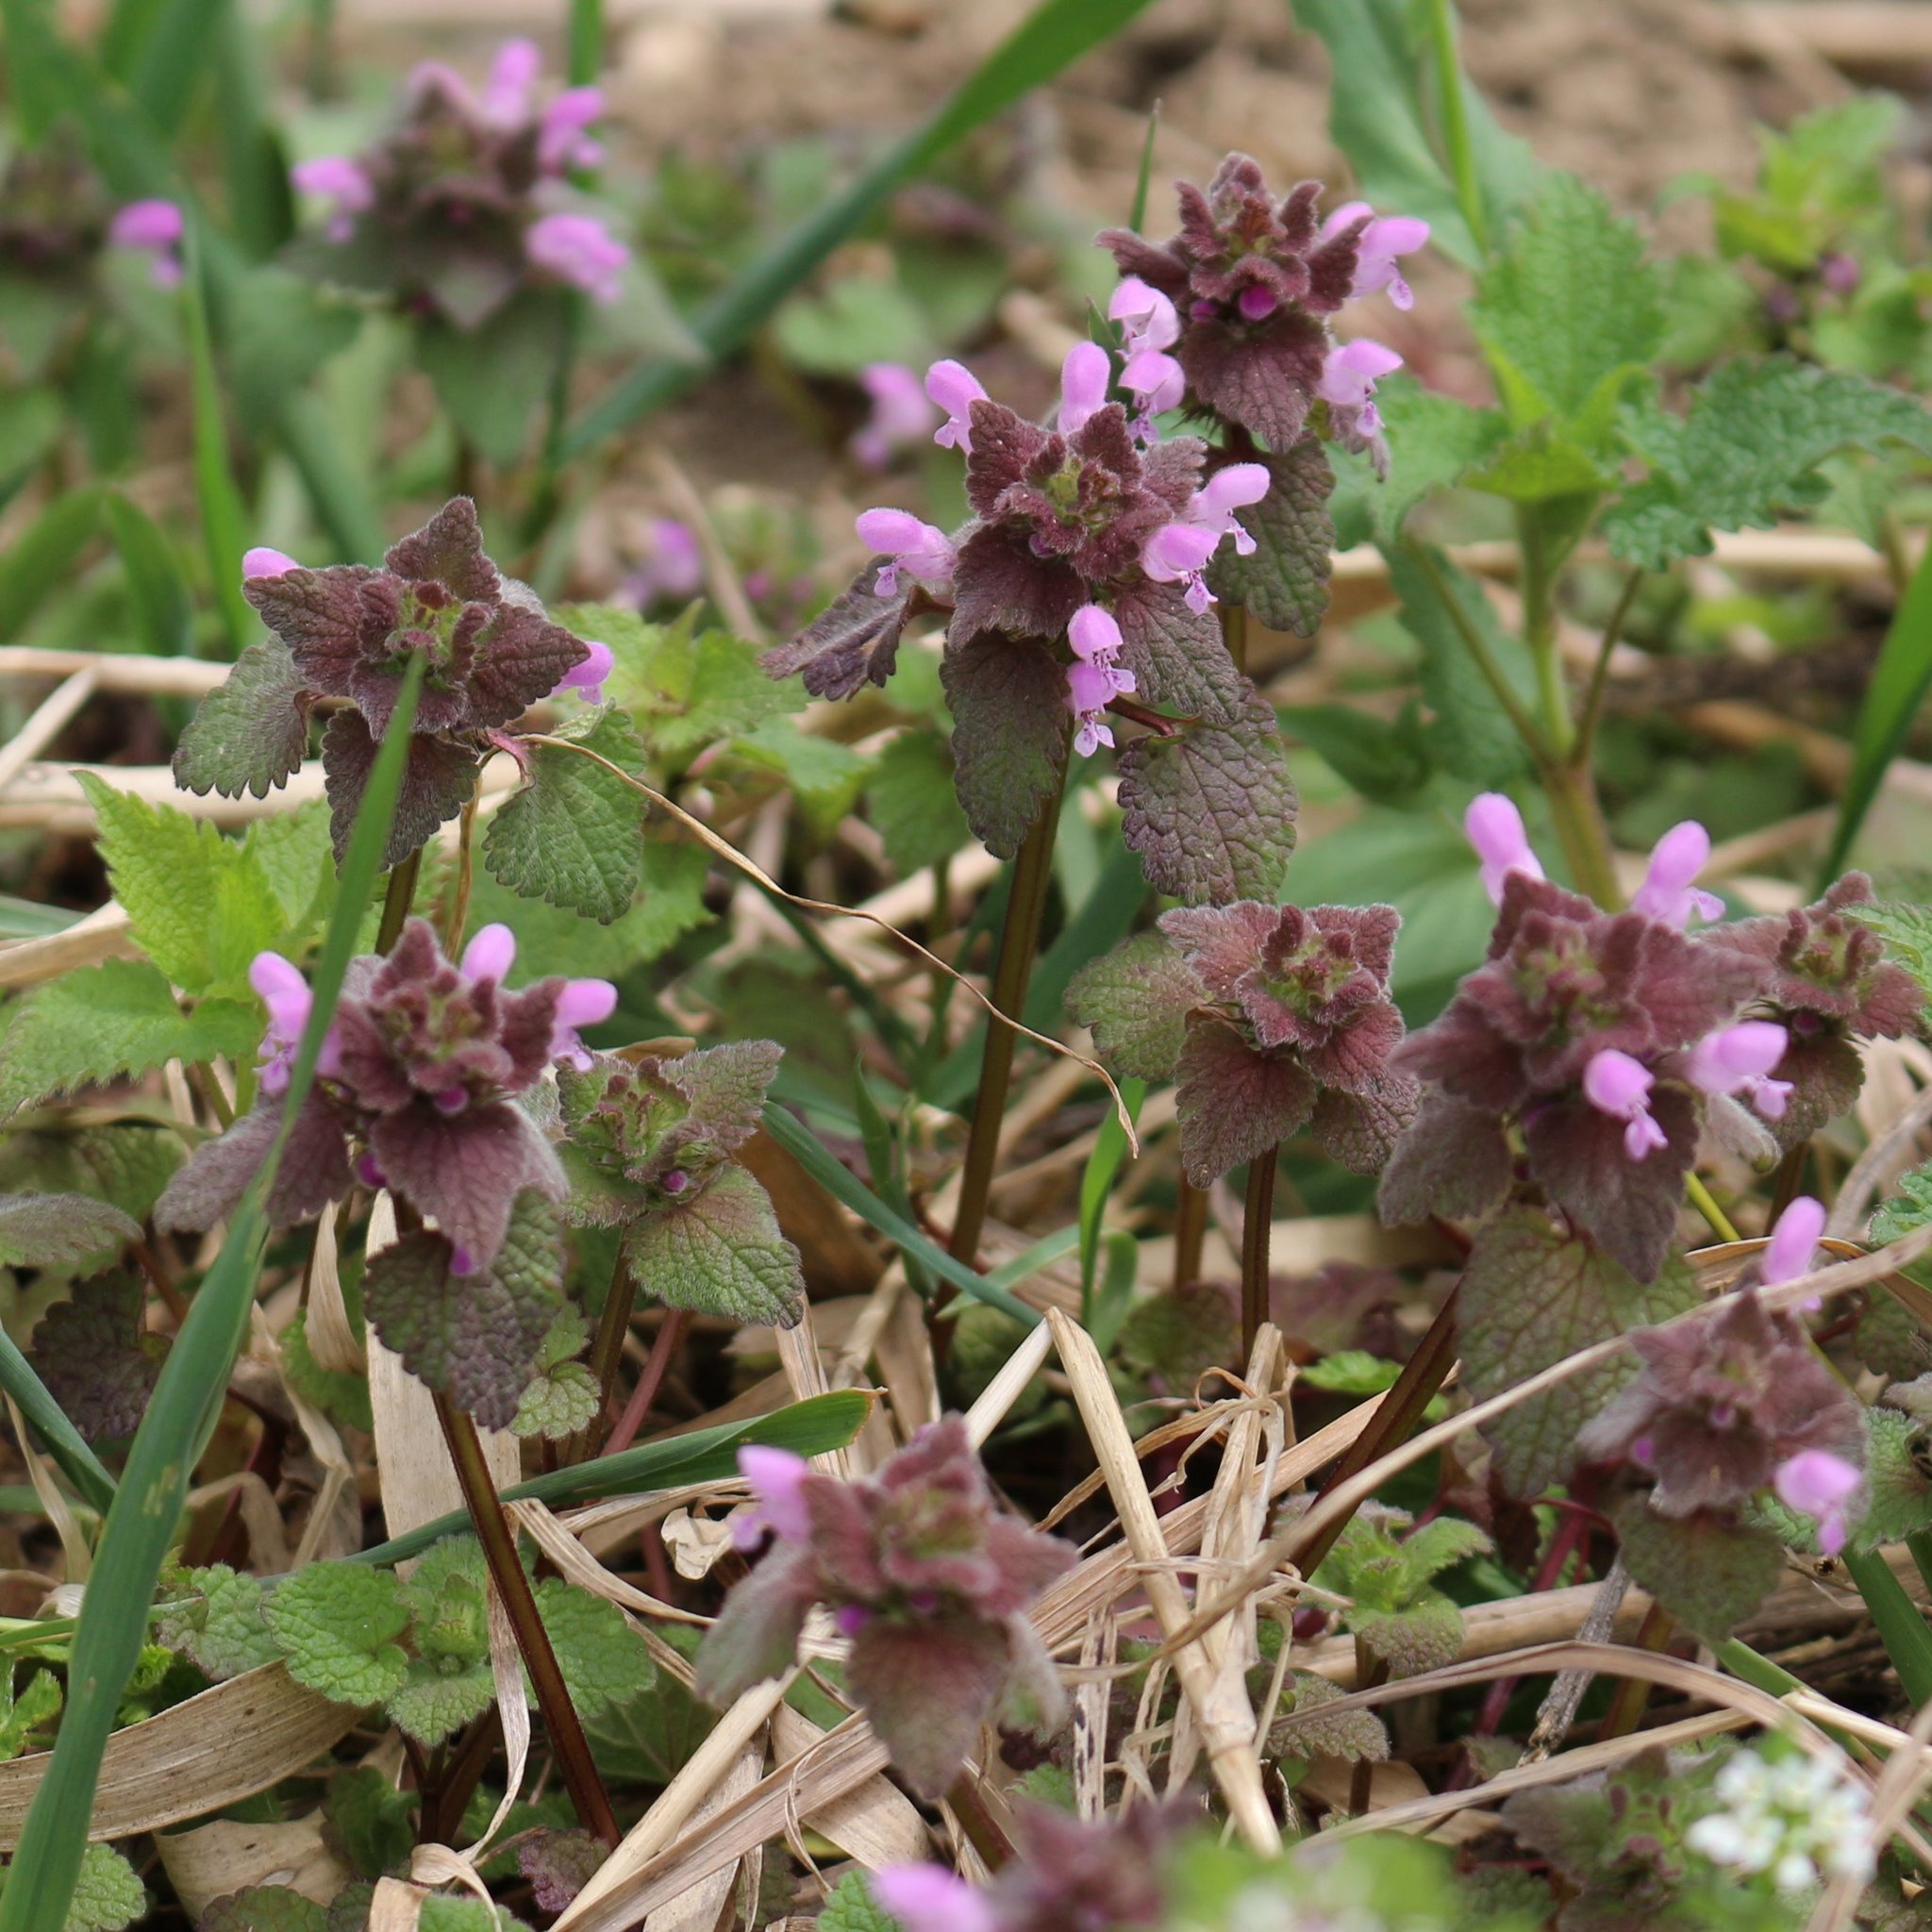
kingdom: Plantae
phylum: Tracheophyta
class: Magnoliopsida
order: Lamiales
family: Lamiaceae
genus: Lamium
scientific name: Lamium purpureum
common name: Red dead-nettle
